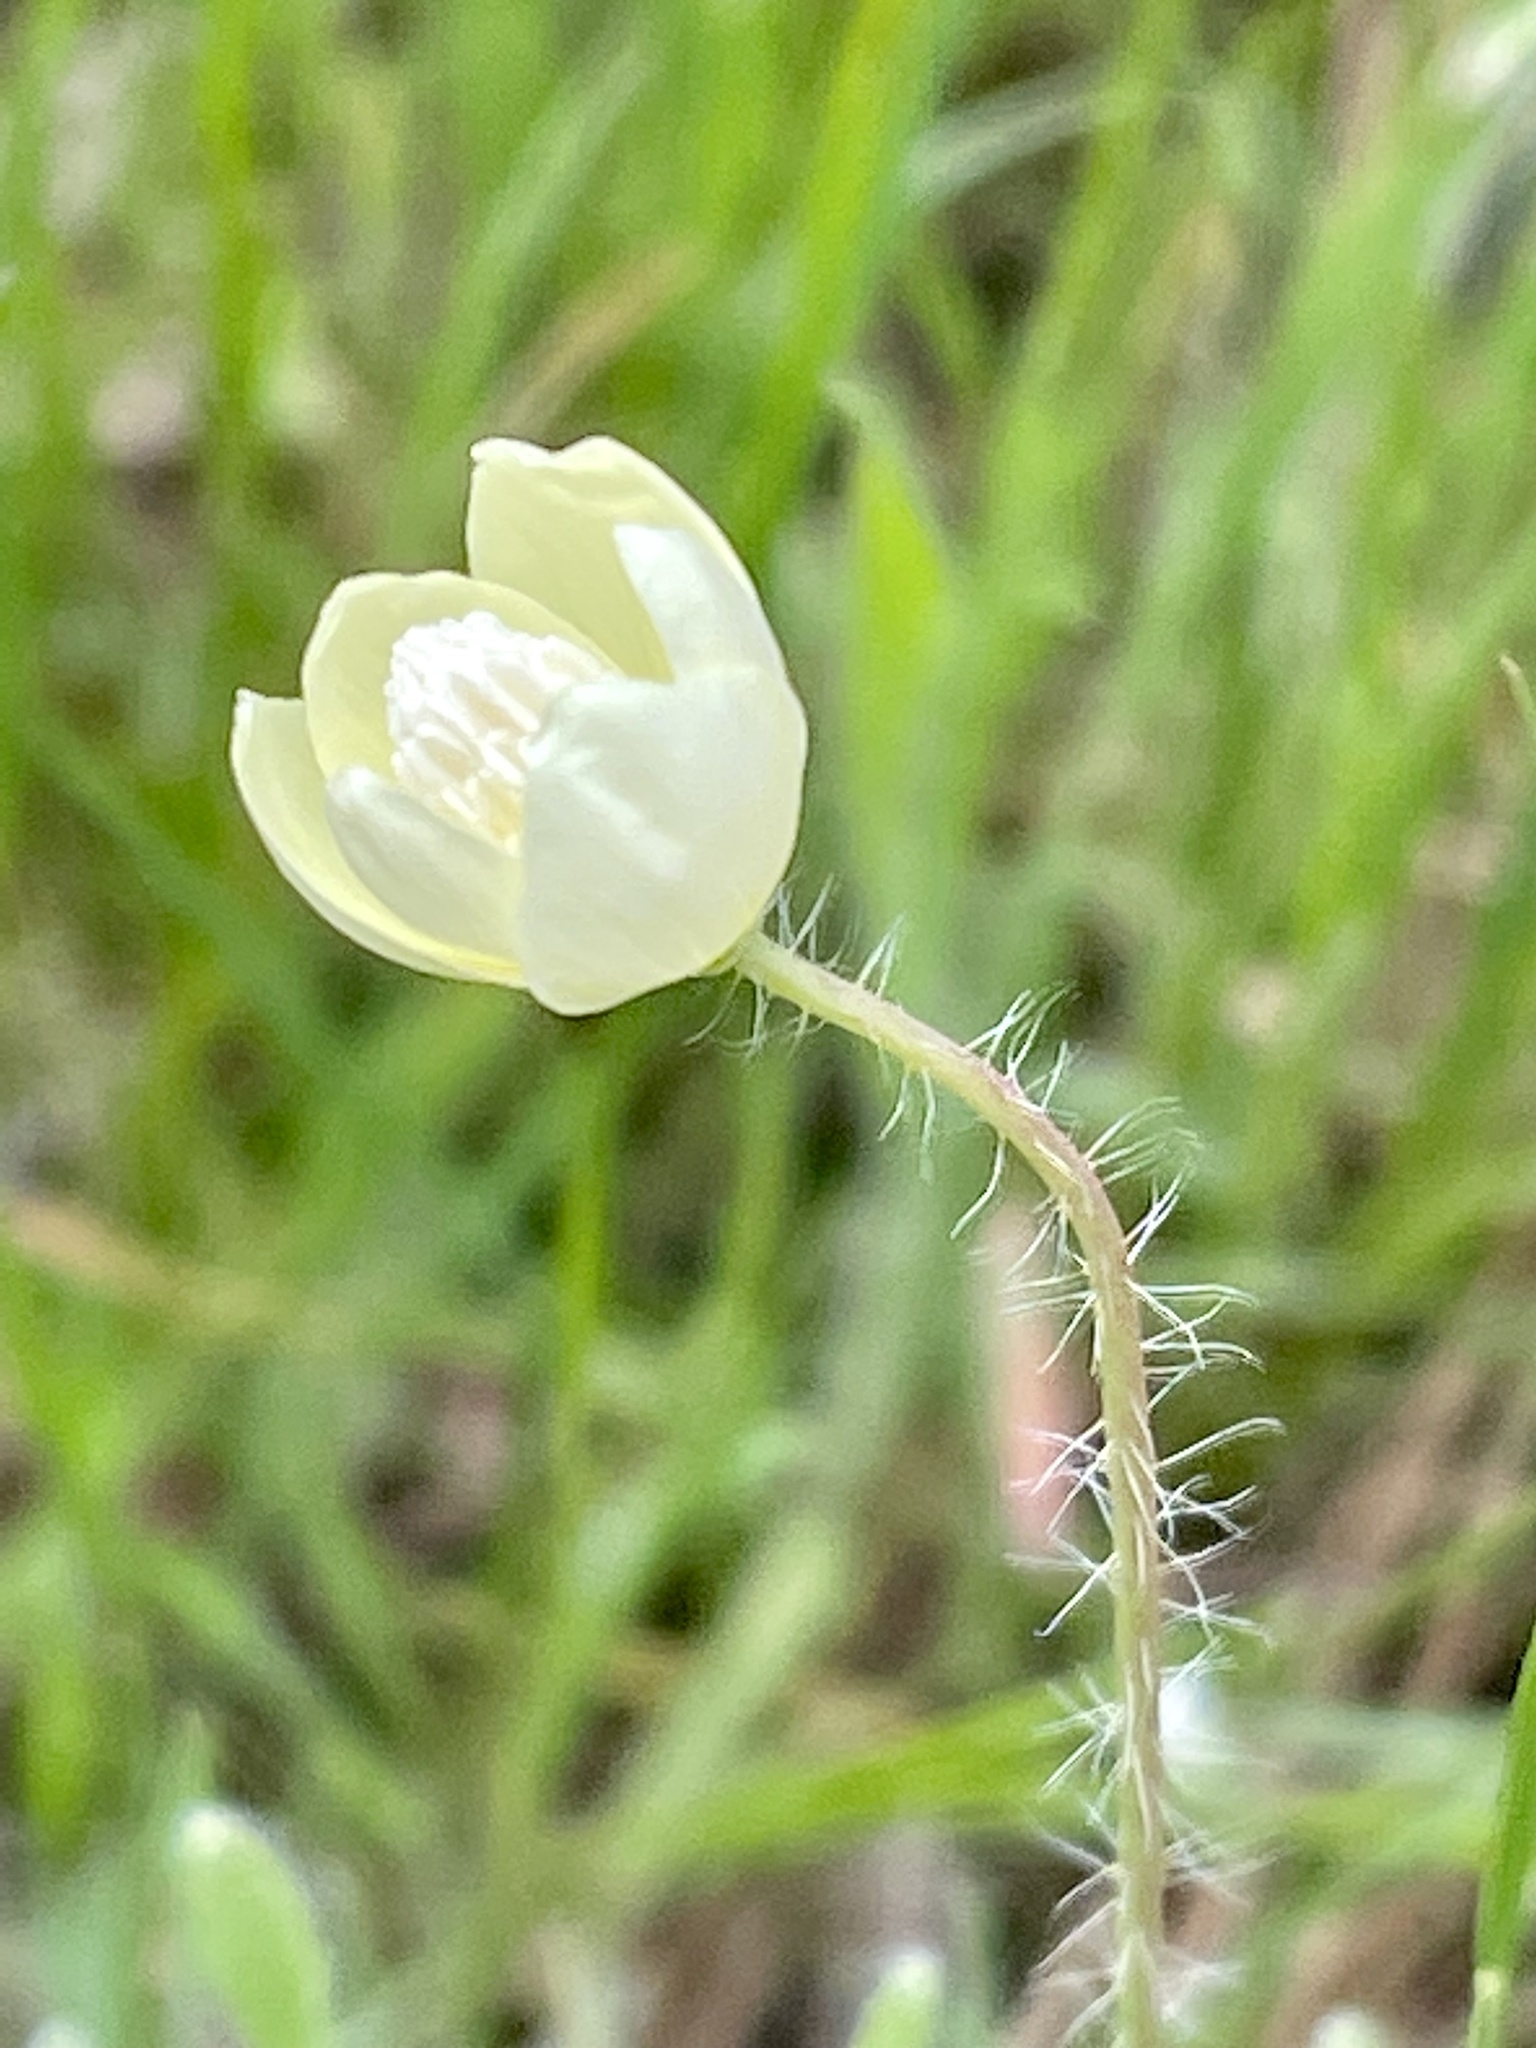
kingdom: Plantae
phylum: Tracheophyta
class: Magnoliopsida
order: Ranunculales
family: Papaveraceae
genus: Platystemon
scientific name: Platystemon californicus
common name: Cream-cups
